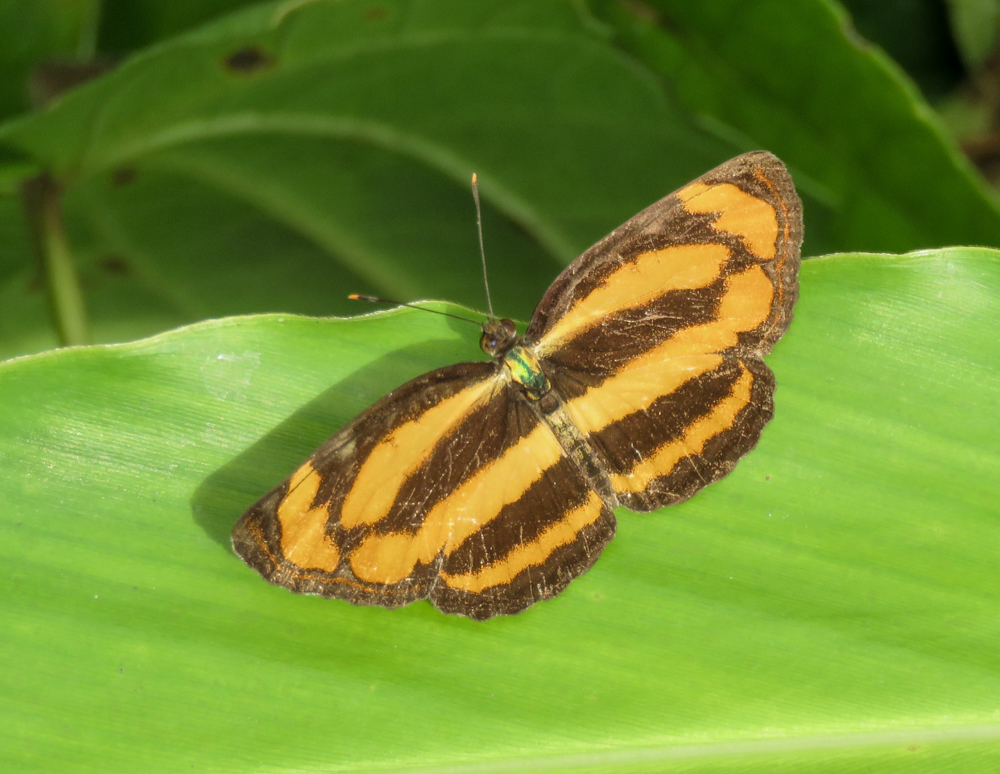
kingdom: Animalia
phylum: Arthropoda
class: Insecta
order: Lepidoptera
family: Nymphalidae
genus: Pantoporia
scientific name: Pantoporia hordonia
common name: Common lascar
